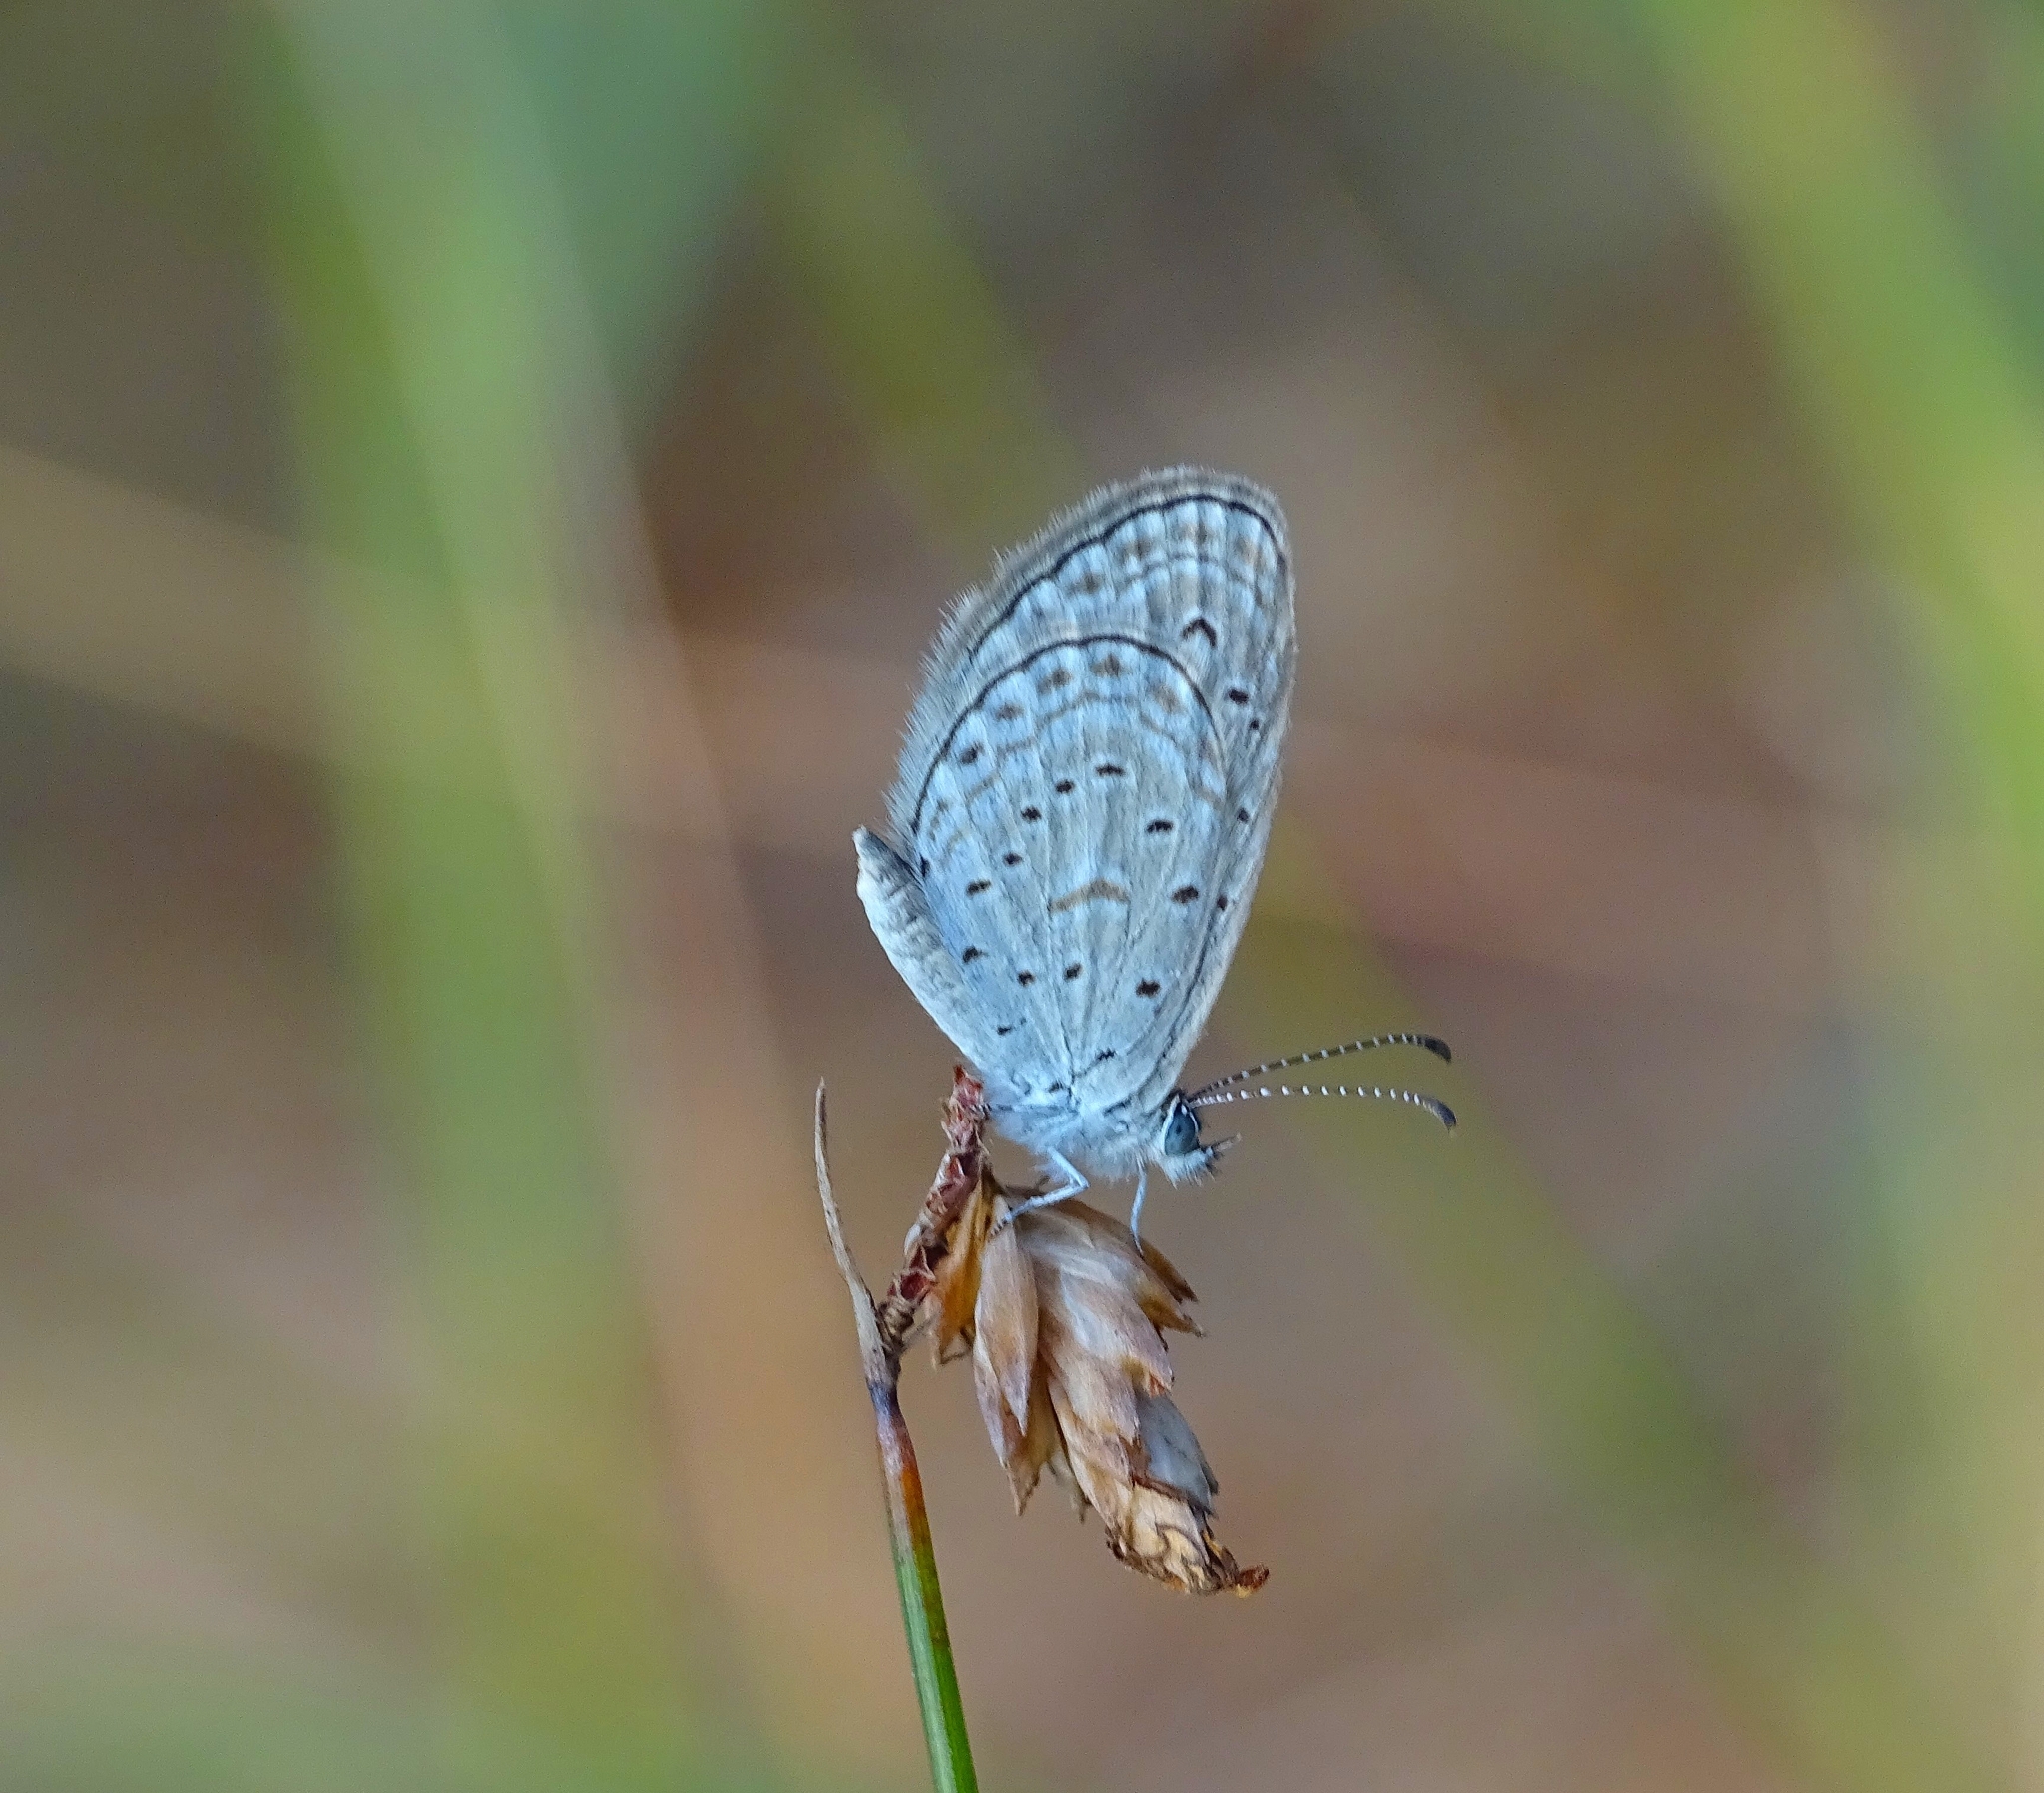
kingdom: Animalia
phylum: Arthropoda
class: Insecta
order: Lepidoptera
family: Lycaenidae
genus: Zizula
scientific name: Zizula hylax
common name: Gaika blue
